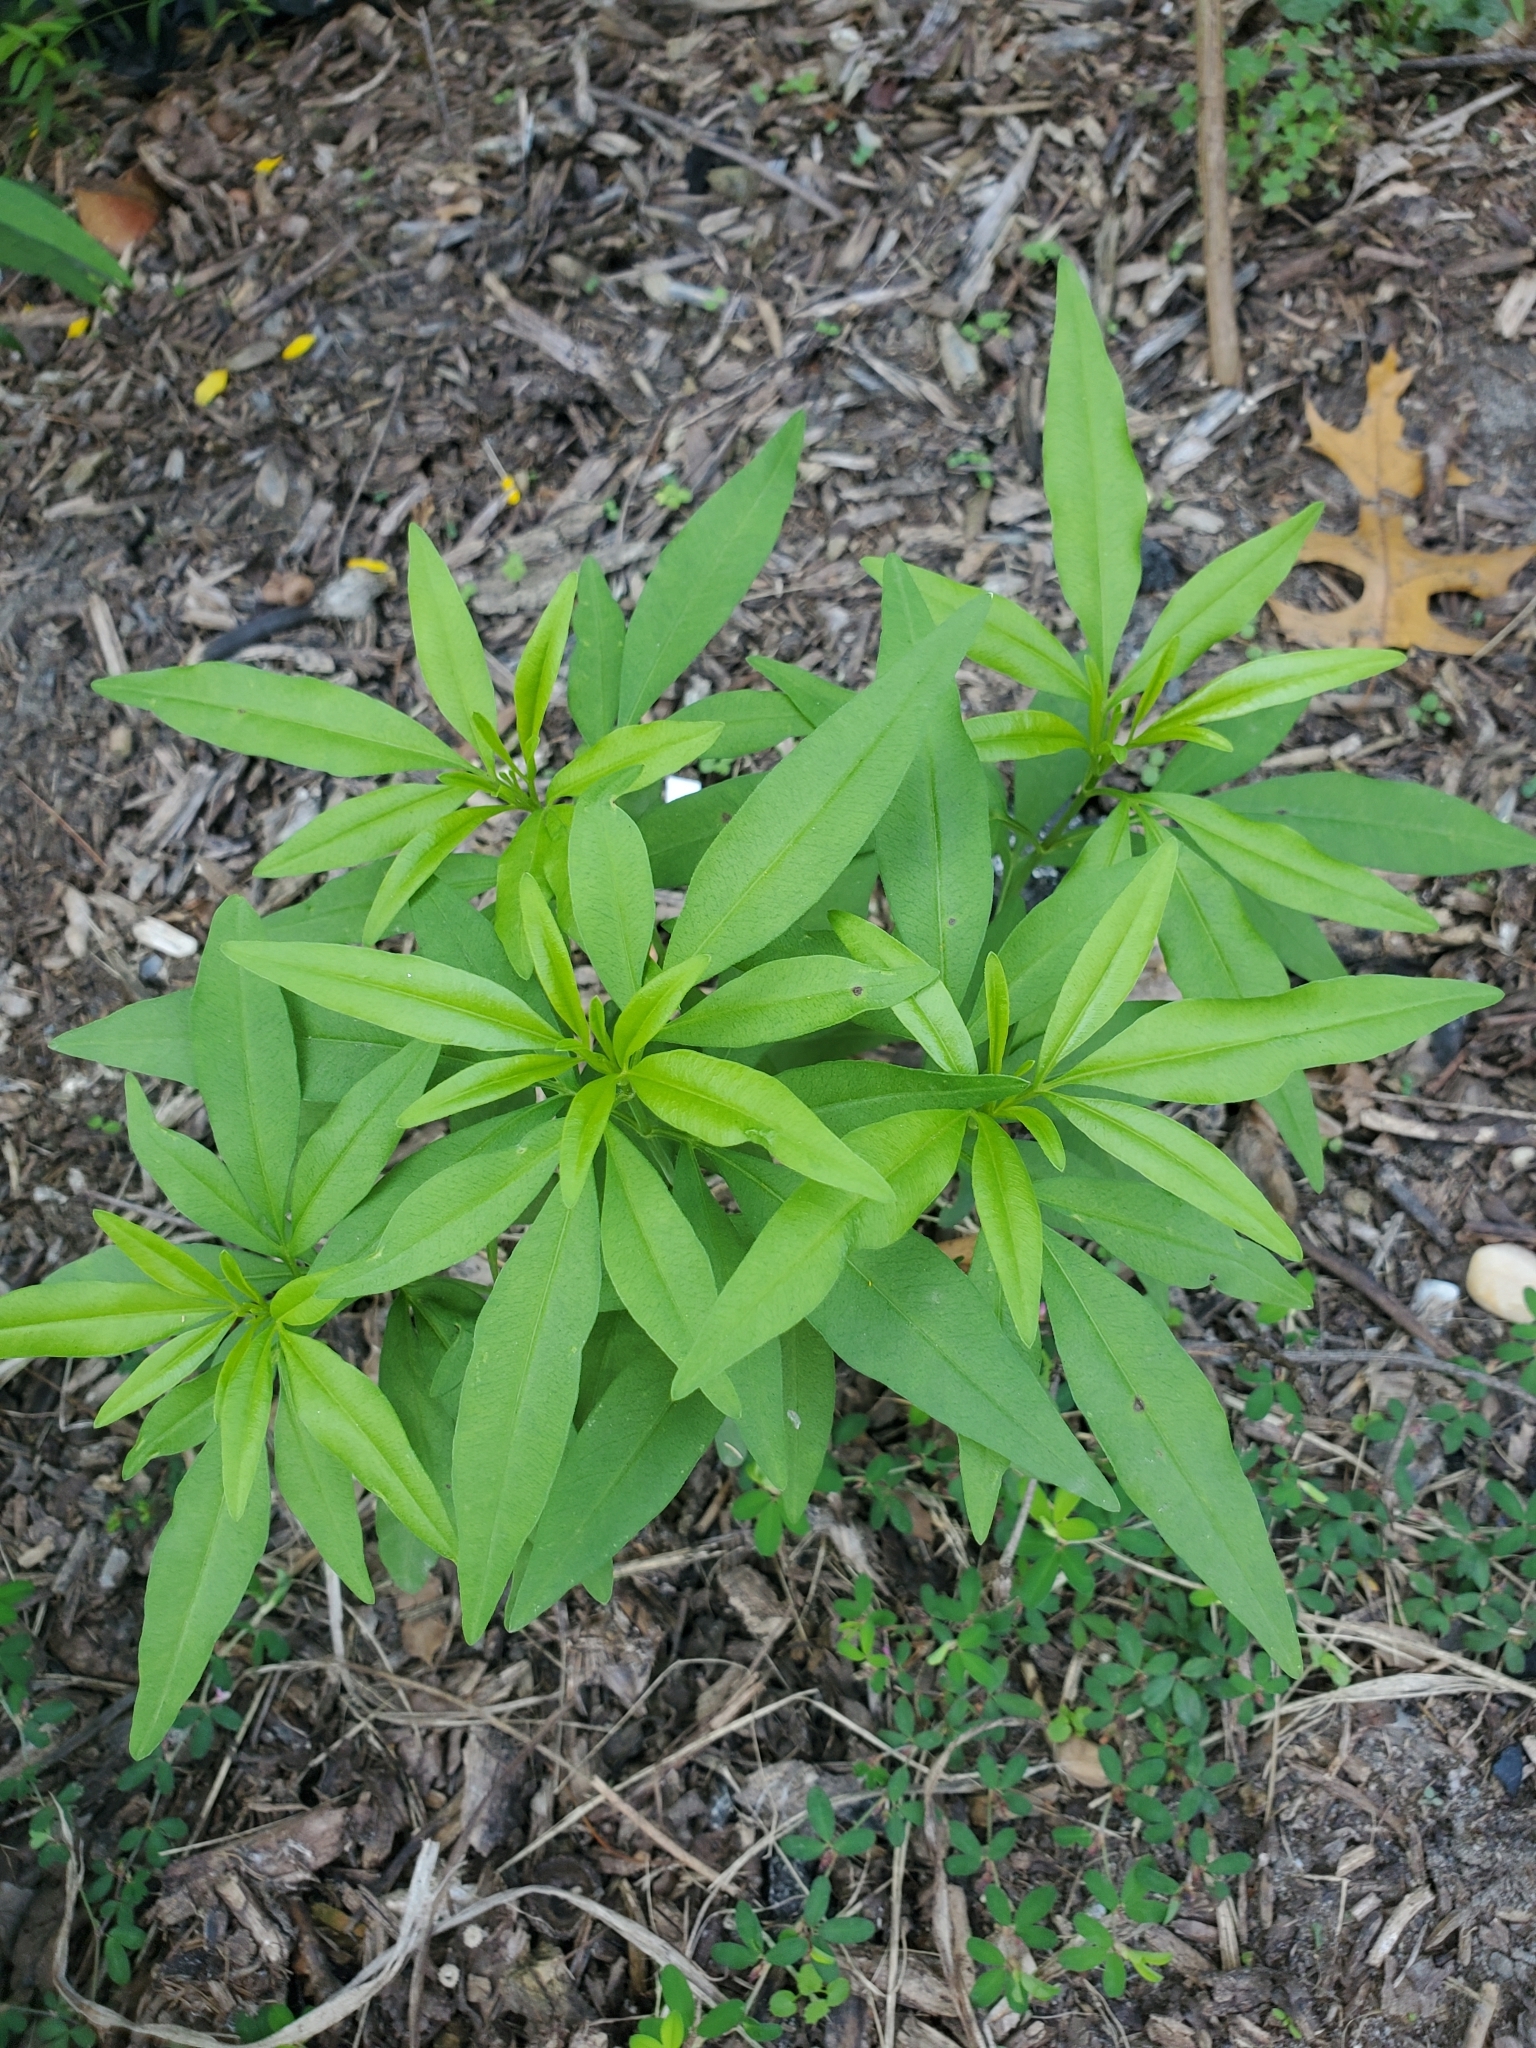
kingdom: Plantae
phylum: Tracheophyta
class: Magnoliopsida
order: Asterales
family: Asteraceae
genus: Coreopsis
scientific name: Coreopsis tripteris
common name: Tall coreopsis
